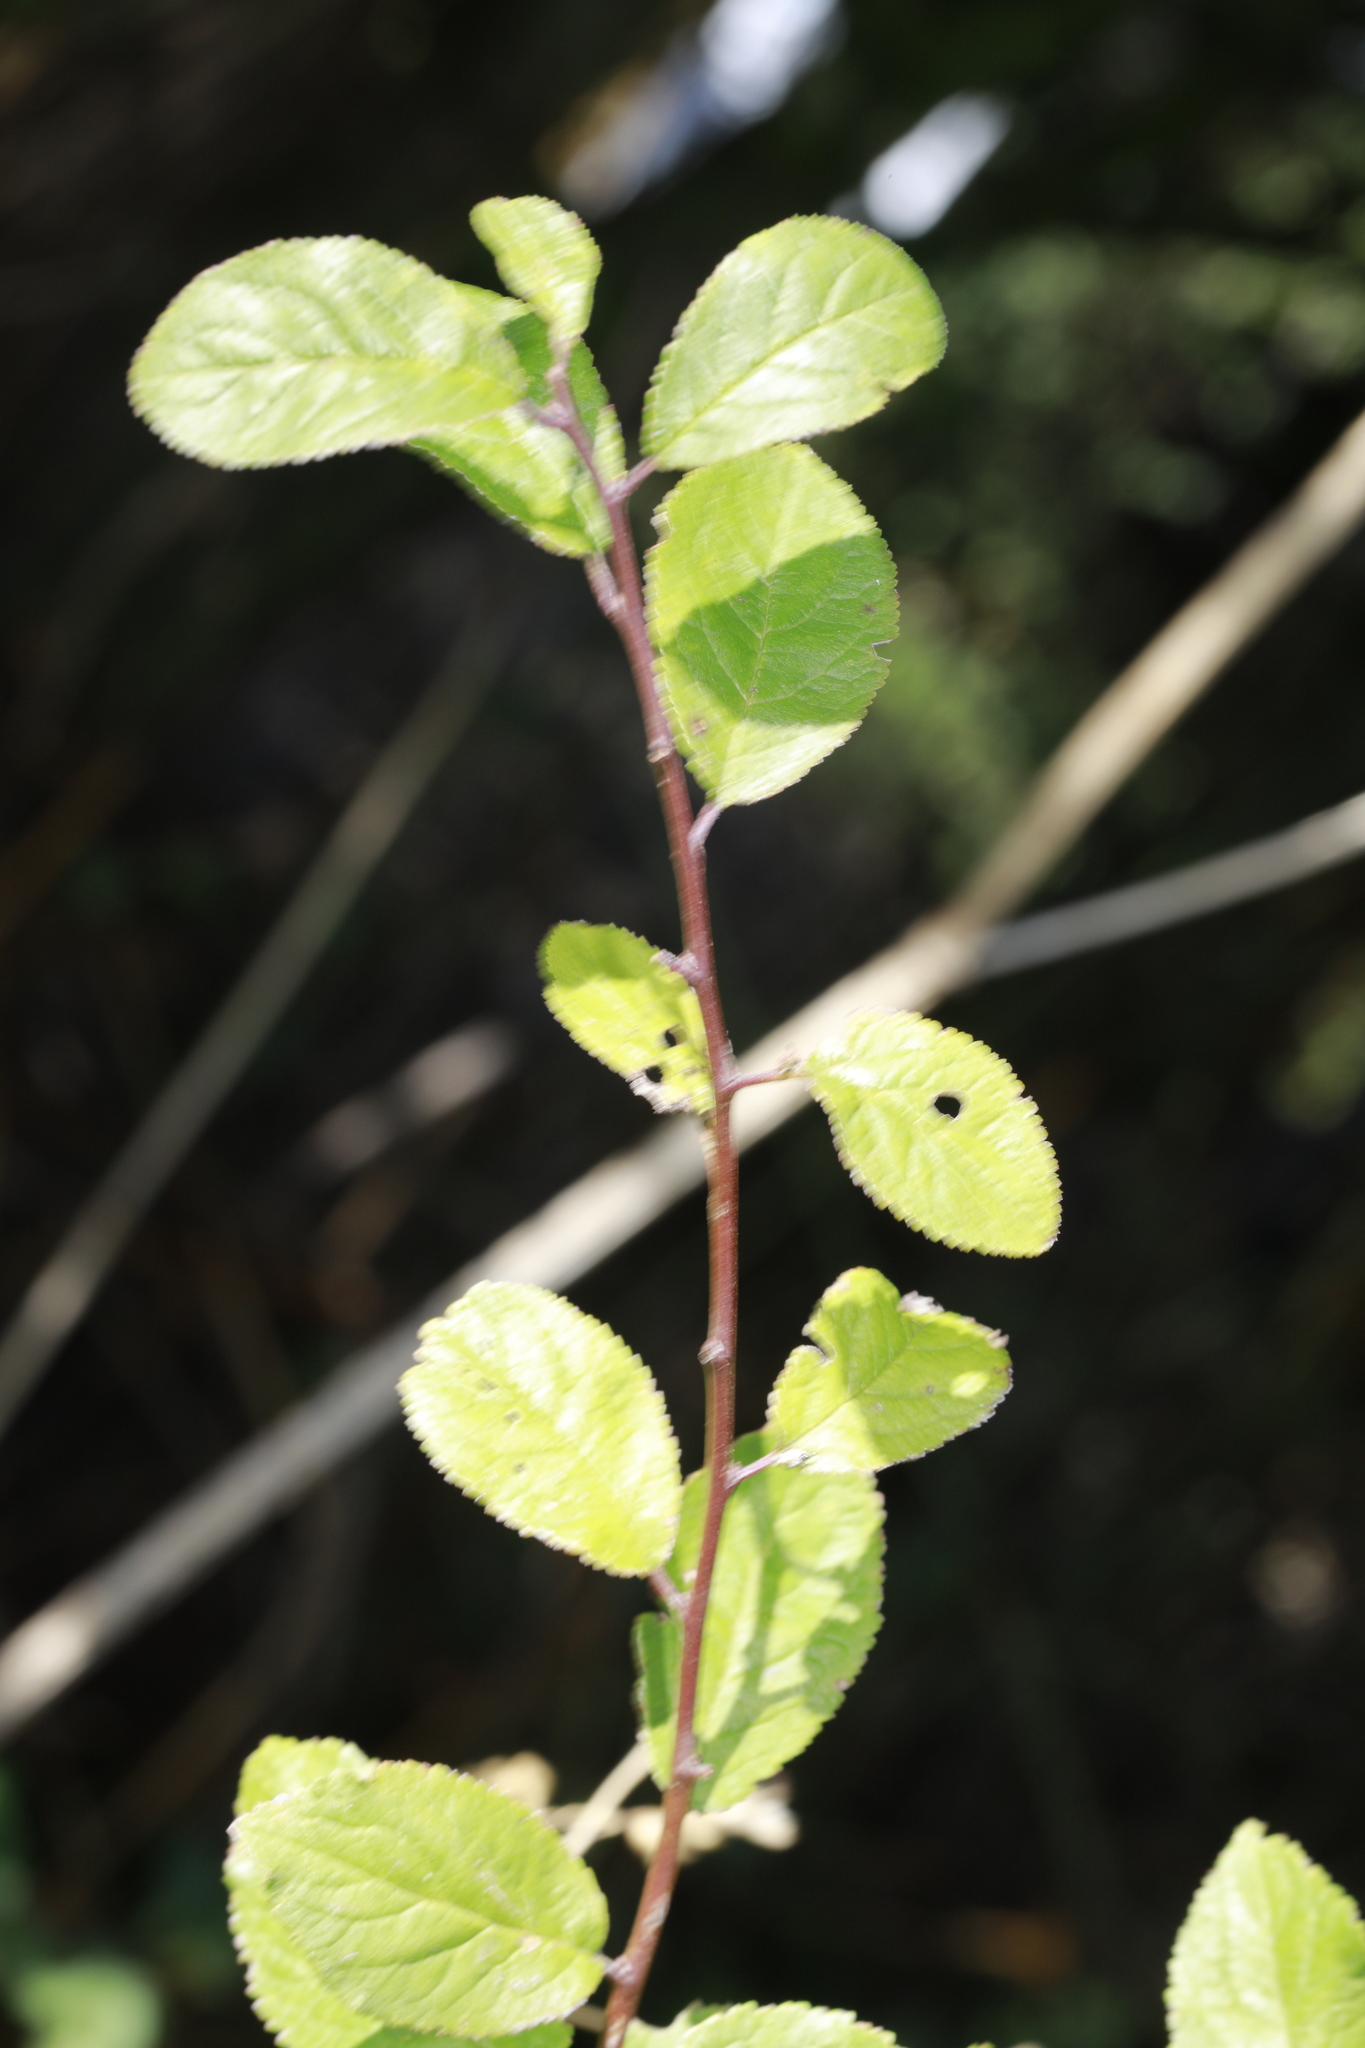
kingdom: Plantae
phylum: Tracheophyta
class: Magnoliopsida
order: Rosales
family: Rosaceae
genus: Prunus
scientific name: Prunus spinosa
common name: Blackthorn
